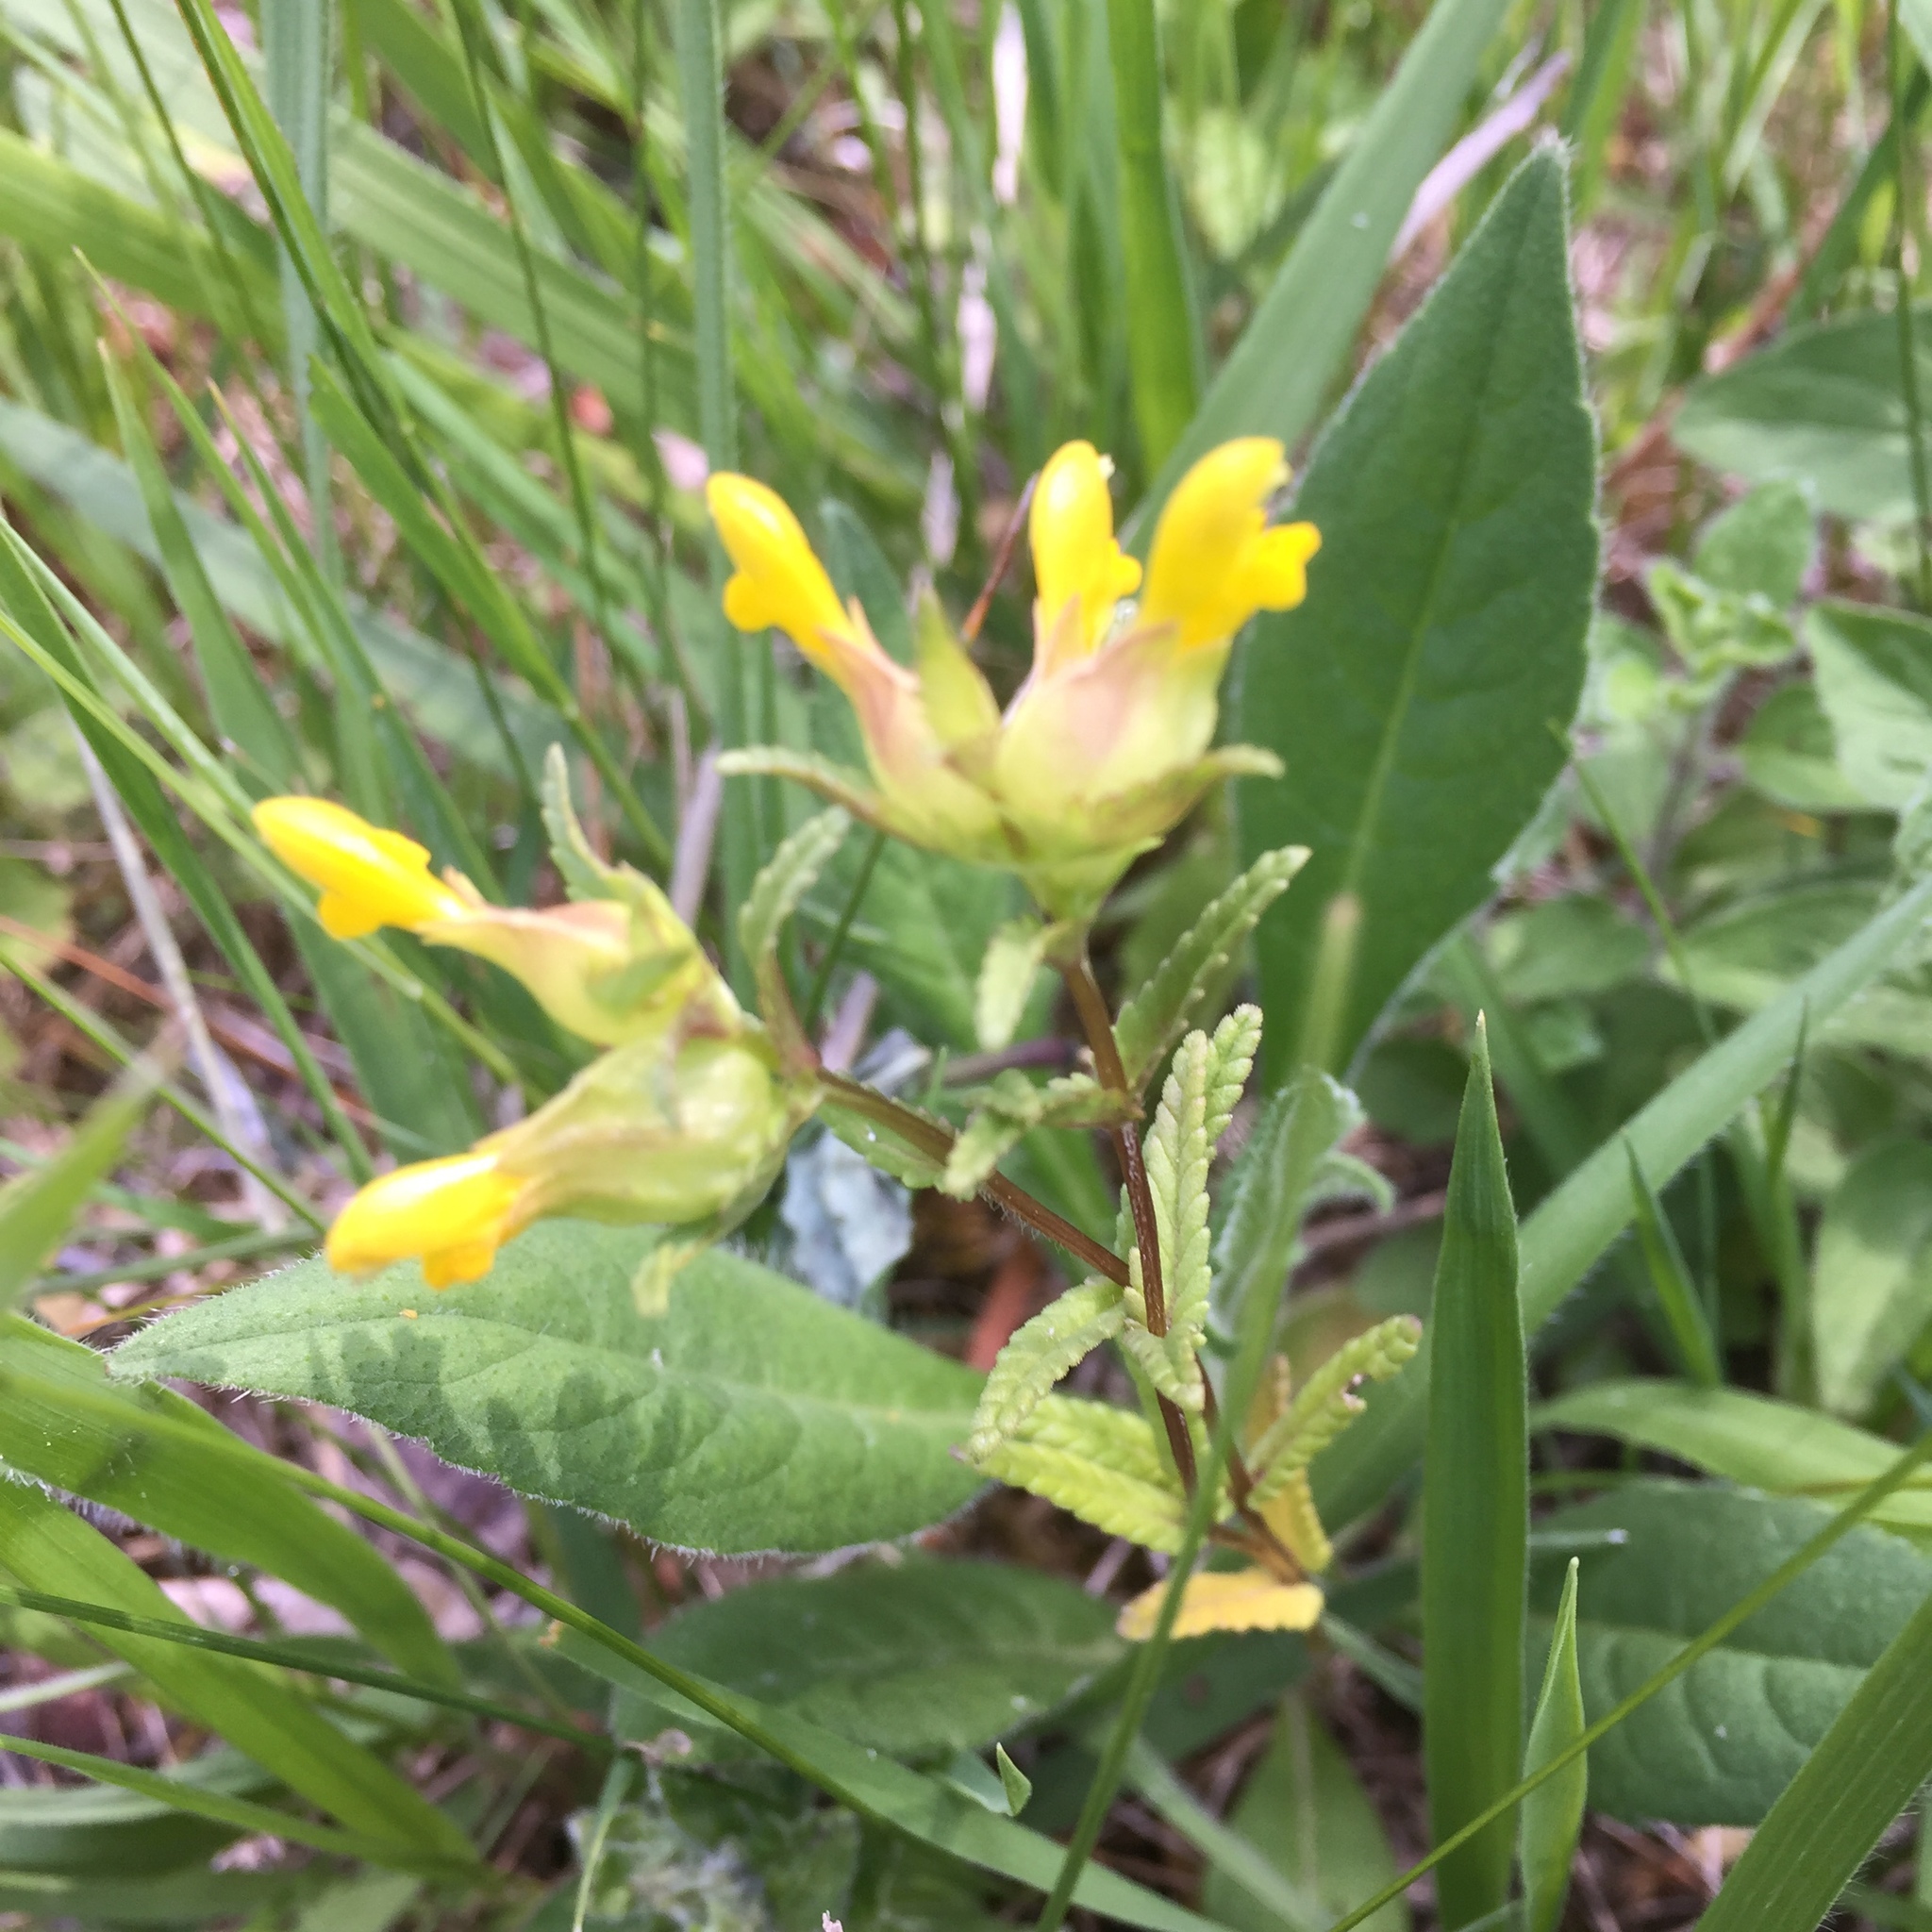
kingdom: Plantae
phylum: Tracheophyta
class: Magnoliopsida
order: Lamiales
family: Orobanchaceae
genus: Rhinanthus
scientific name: Rhinanthus minor
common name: Yellow-rattle
